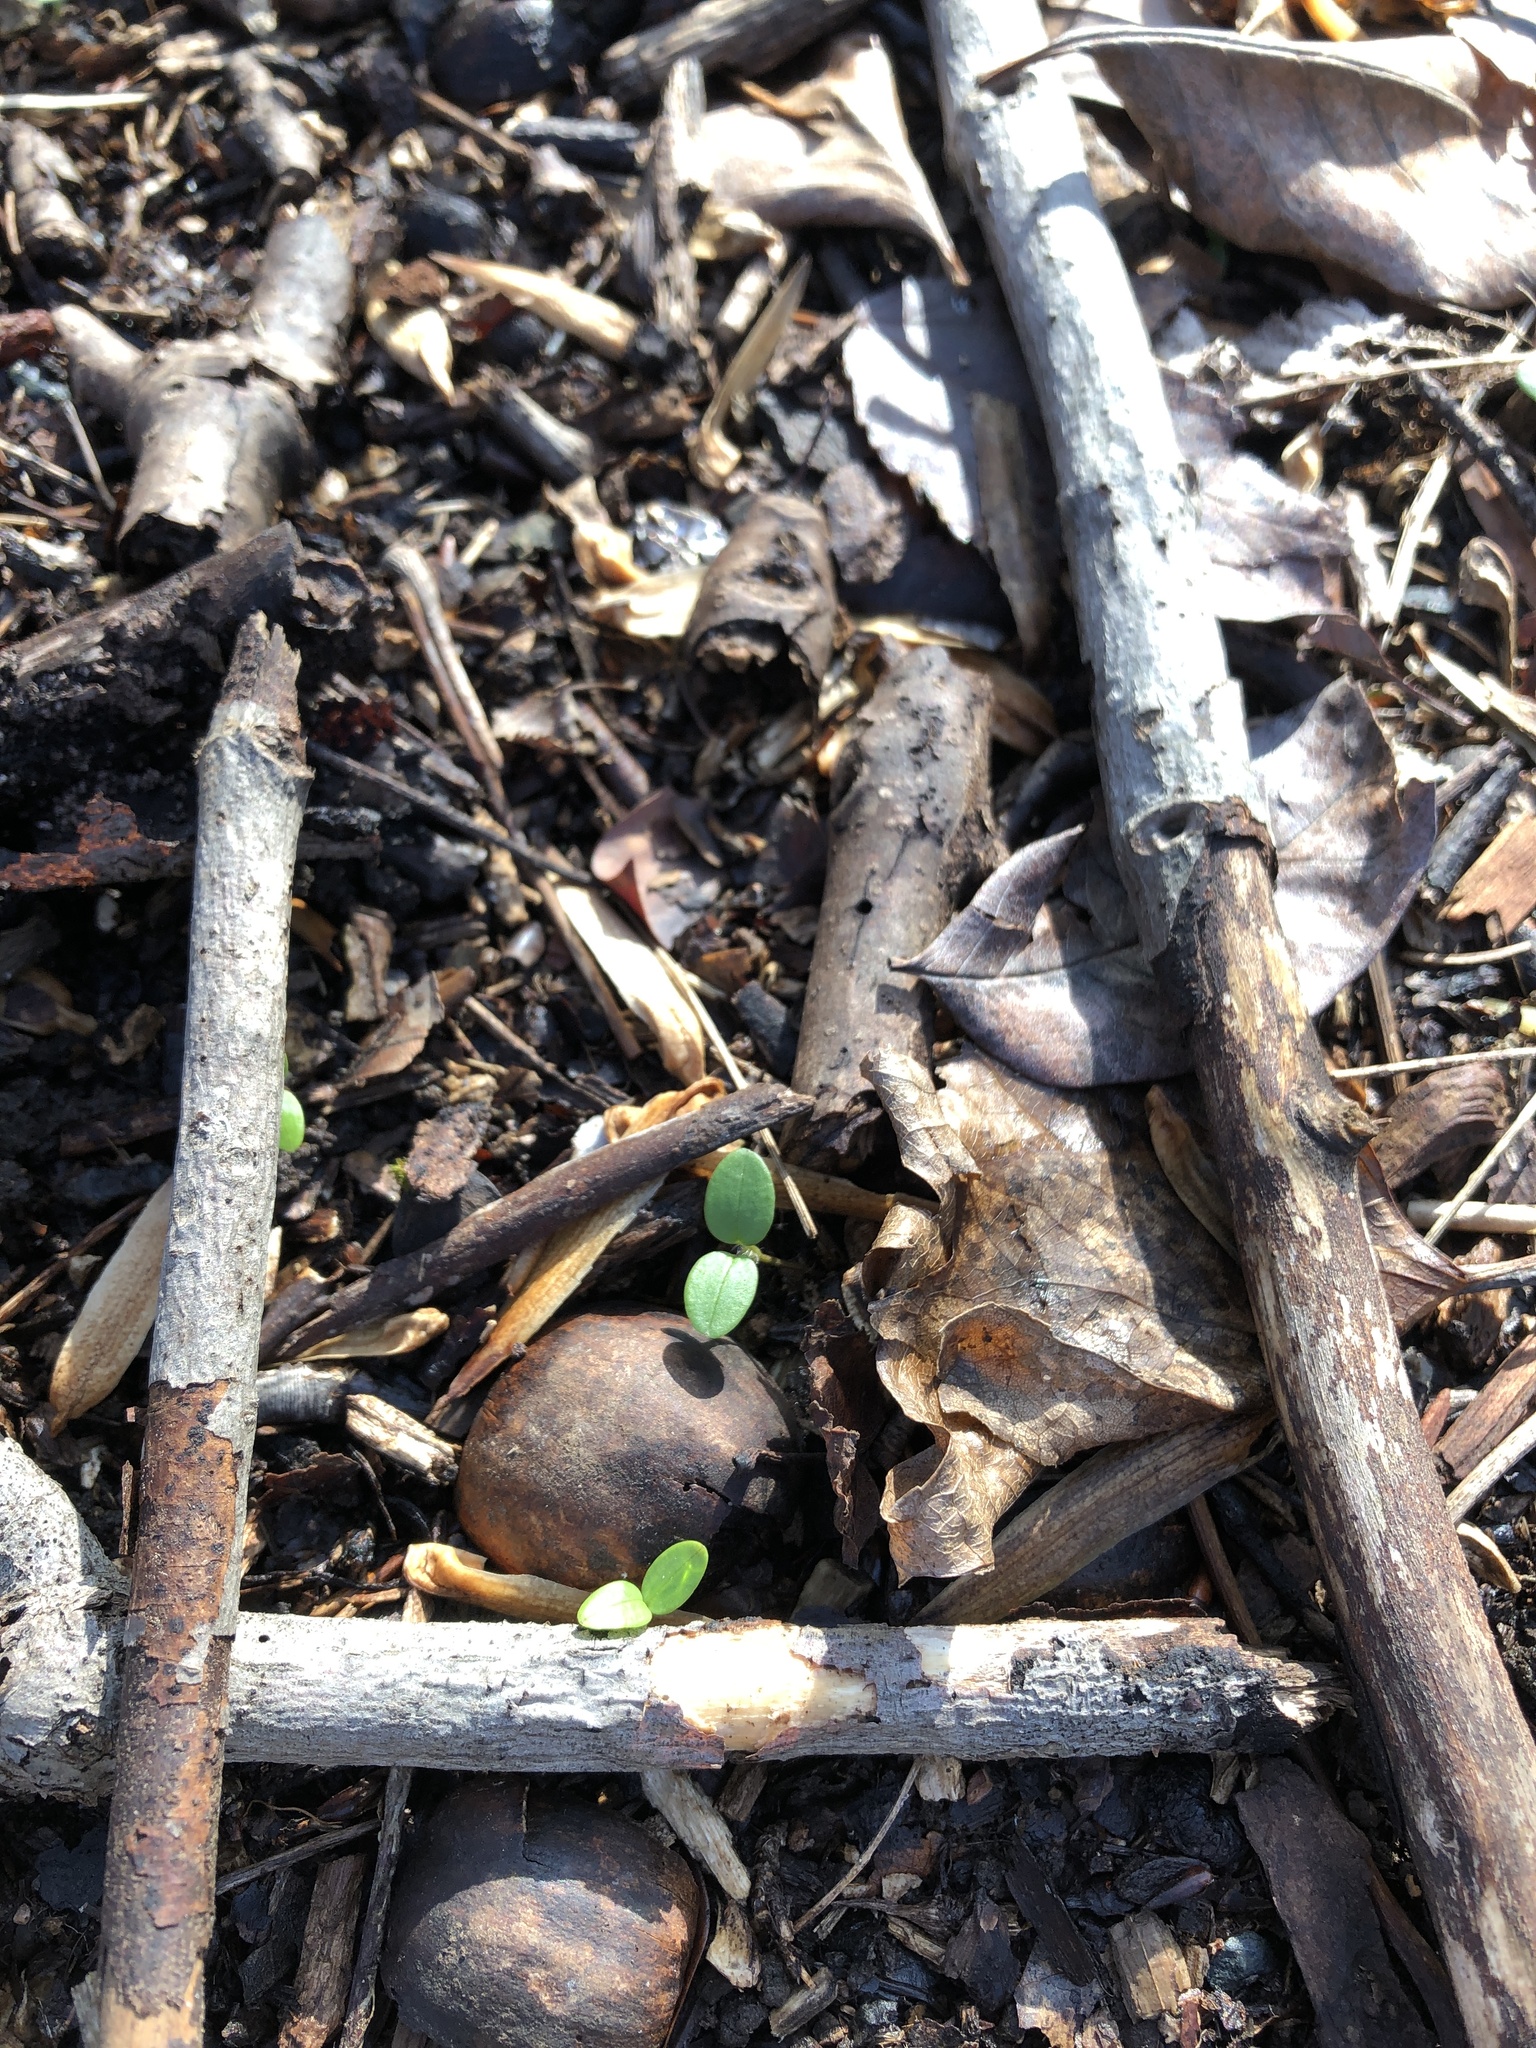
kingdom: Plantae
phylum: Tracheophyta
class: Magnoliopsida
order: Brassicales
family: Brassicaceae
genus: Alliaria
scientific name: Alliaria petiolata
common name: Garlic mustard
